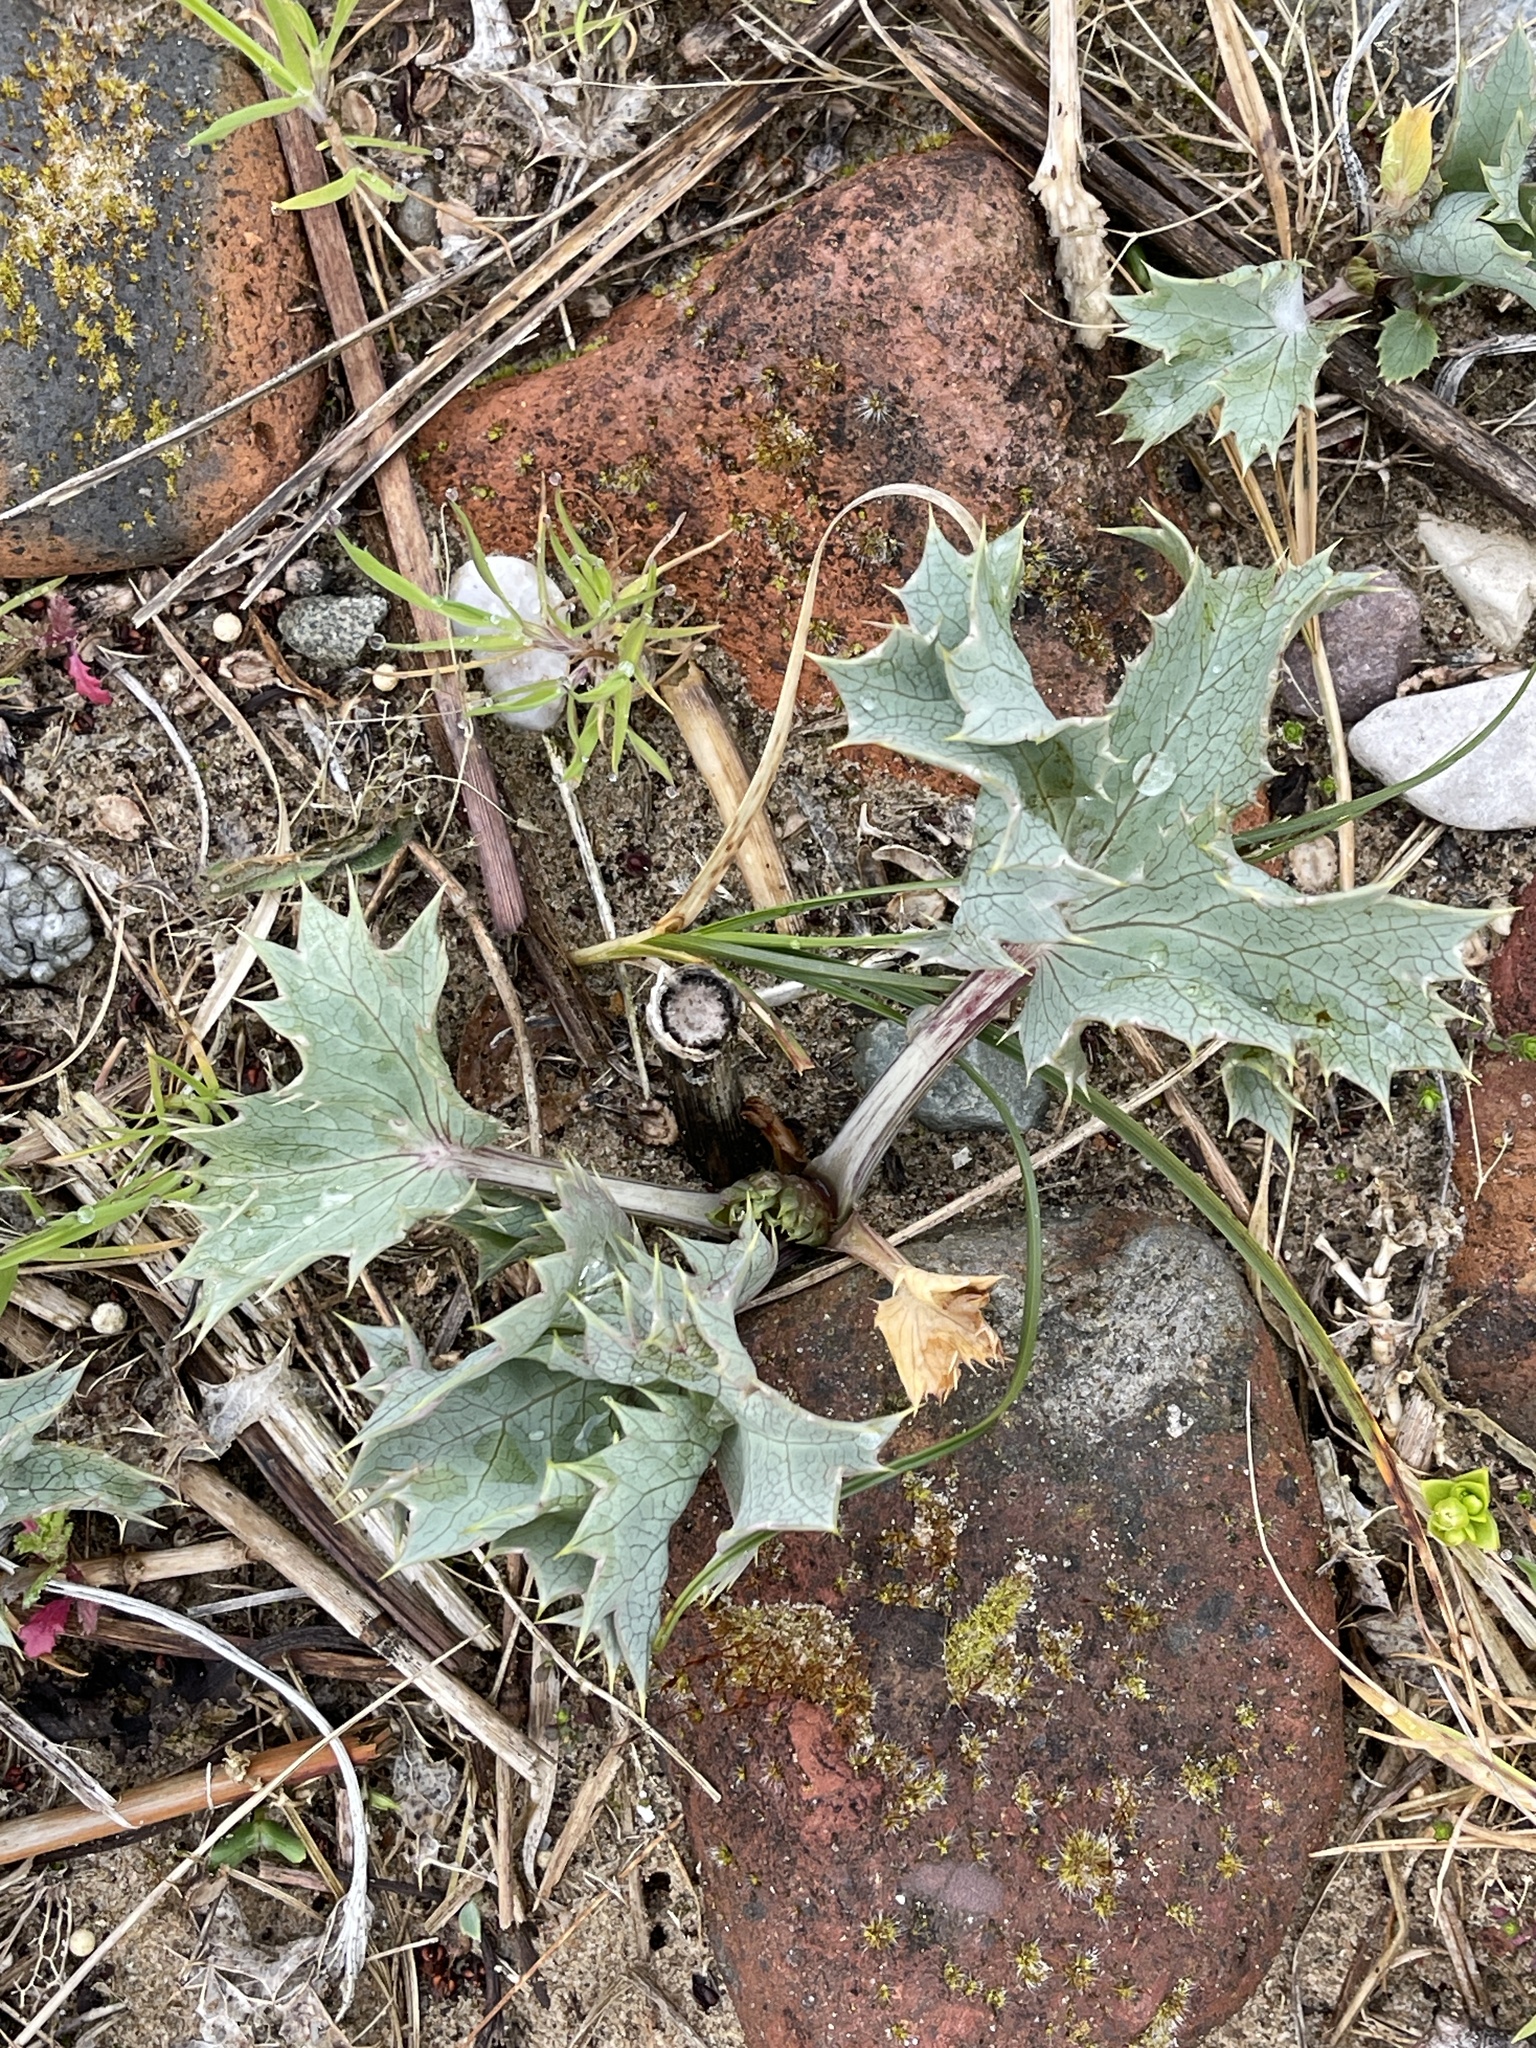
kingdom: Plantae
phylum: Tracheophyta
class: Magnoliopsida
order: Apiales
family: Apiaceae
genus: Eryngium
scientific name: Eryngium maritimum
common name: Sea-holly
